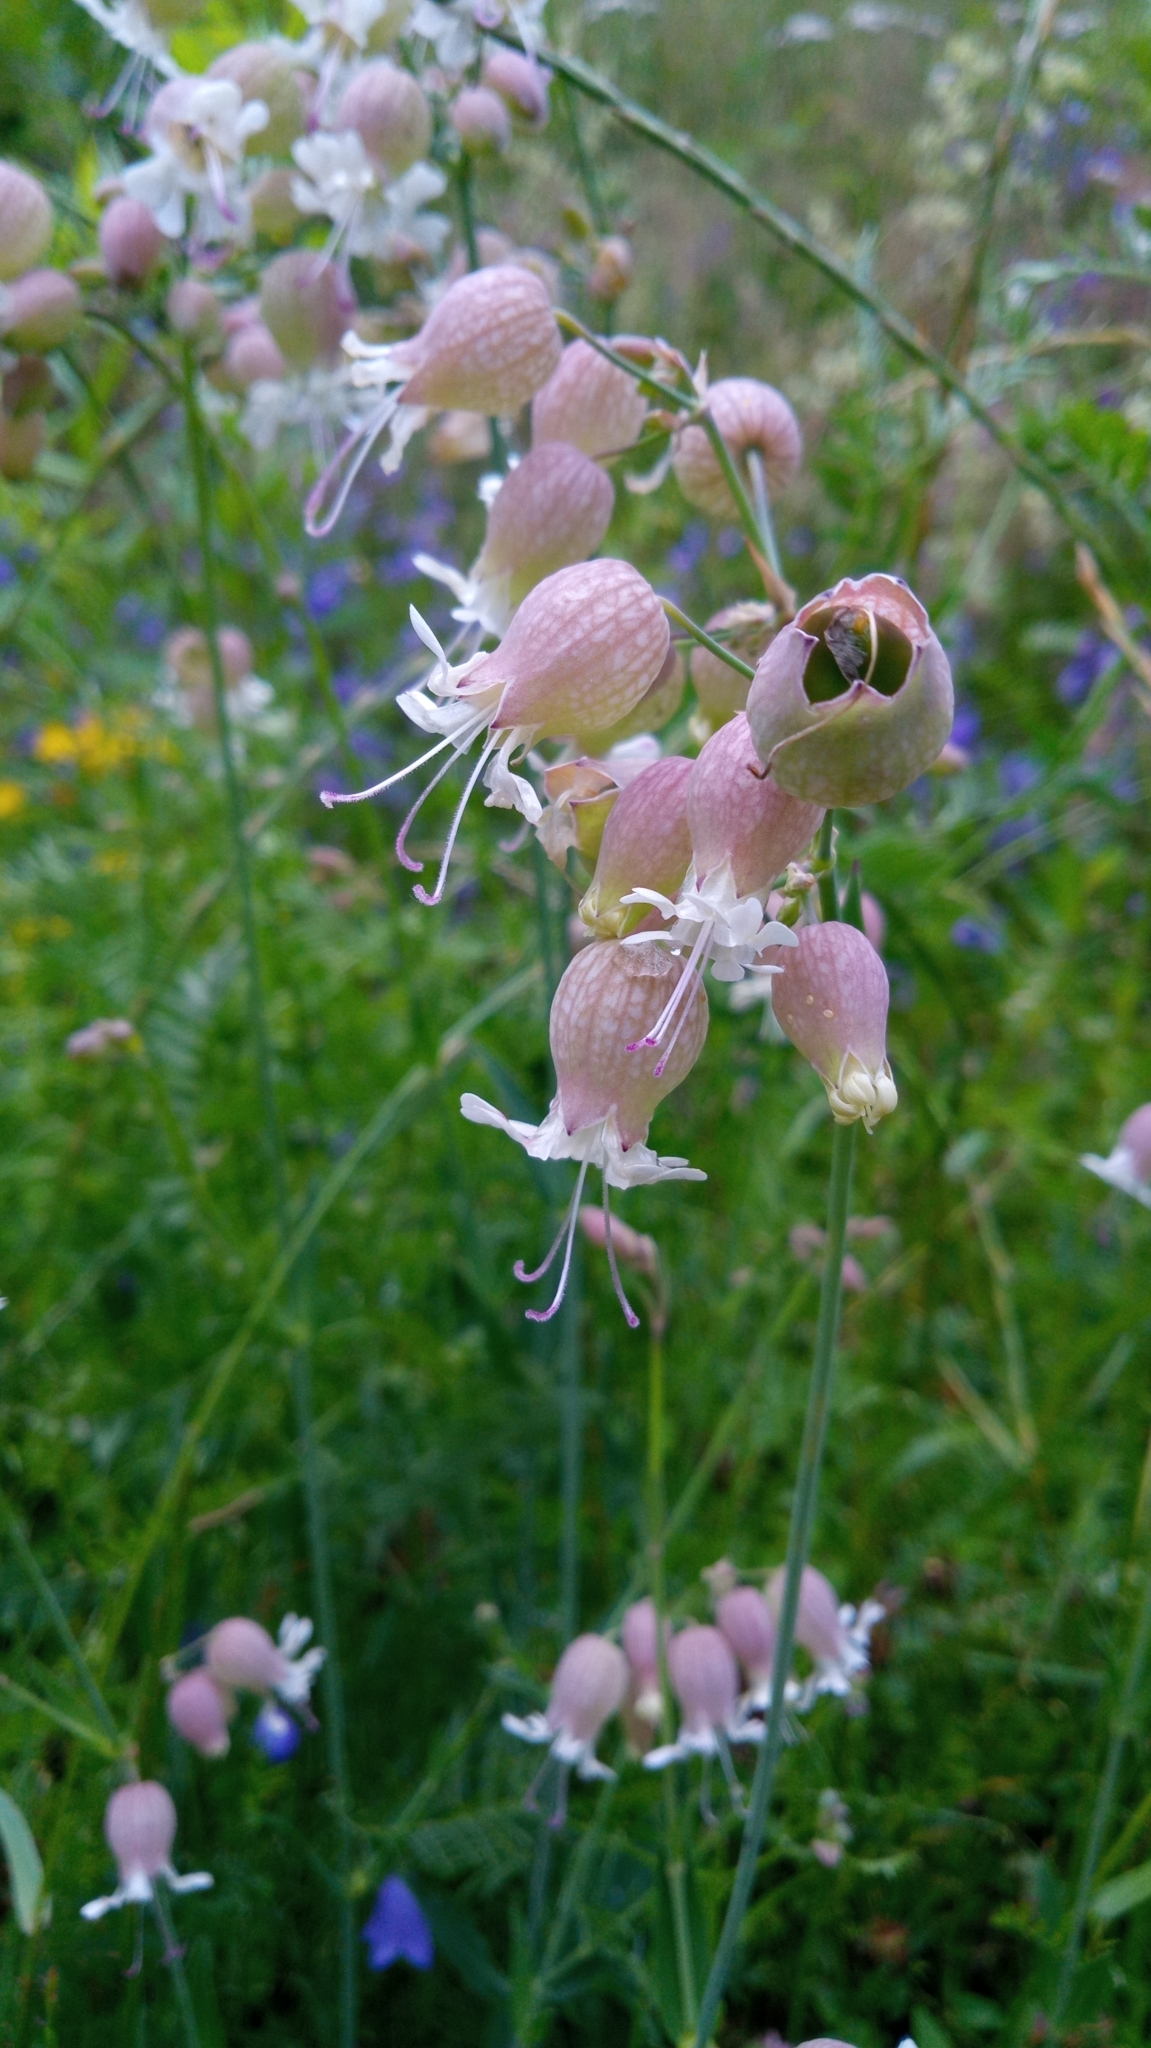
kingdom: Plantae
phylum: Tracheophyta
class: Magnoliopsida
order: Caryophyllales
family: Caryophyllaceae
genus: Silene
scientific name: Silene vulgaris
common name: Bladder campion
